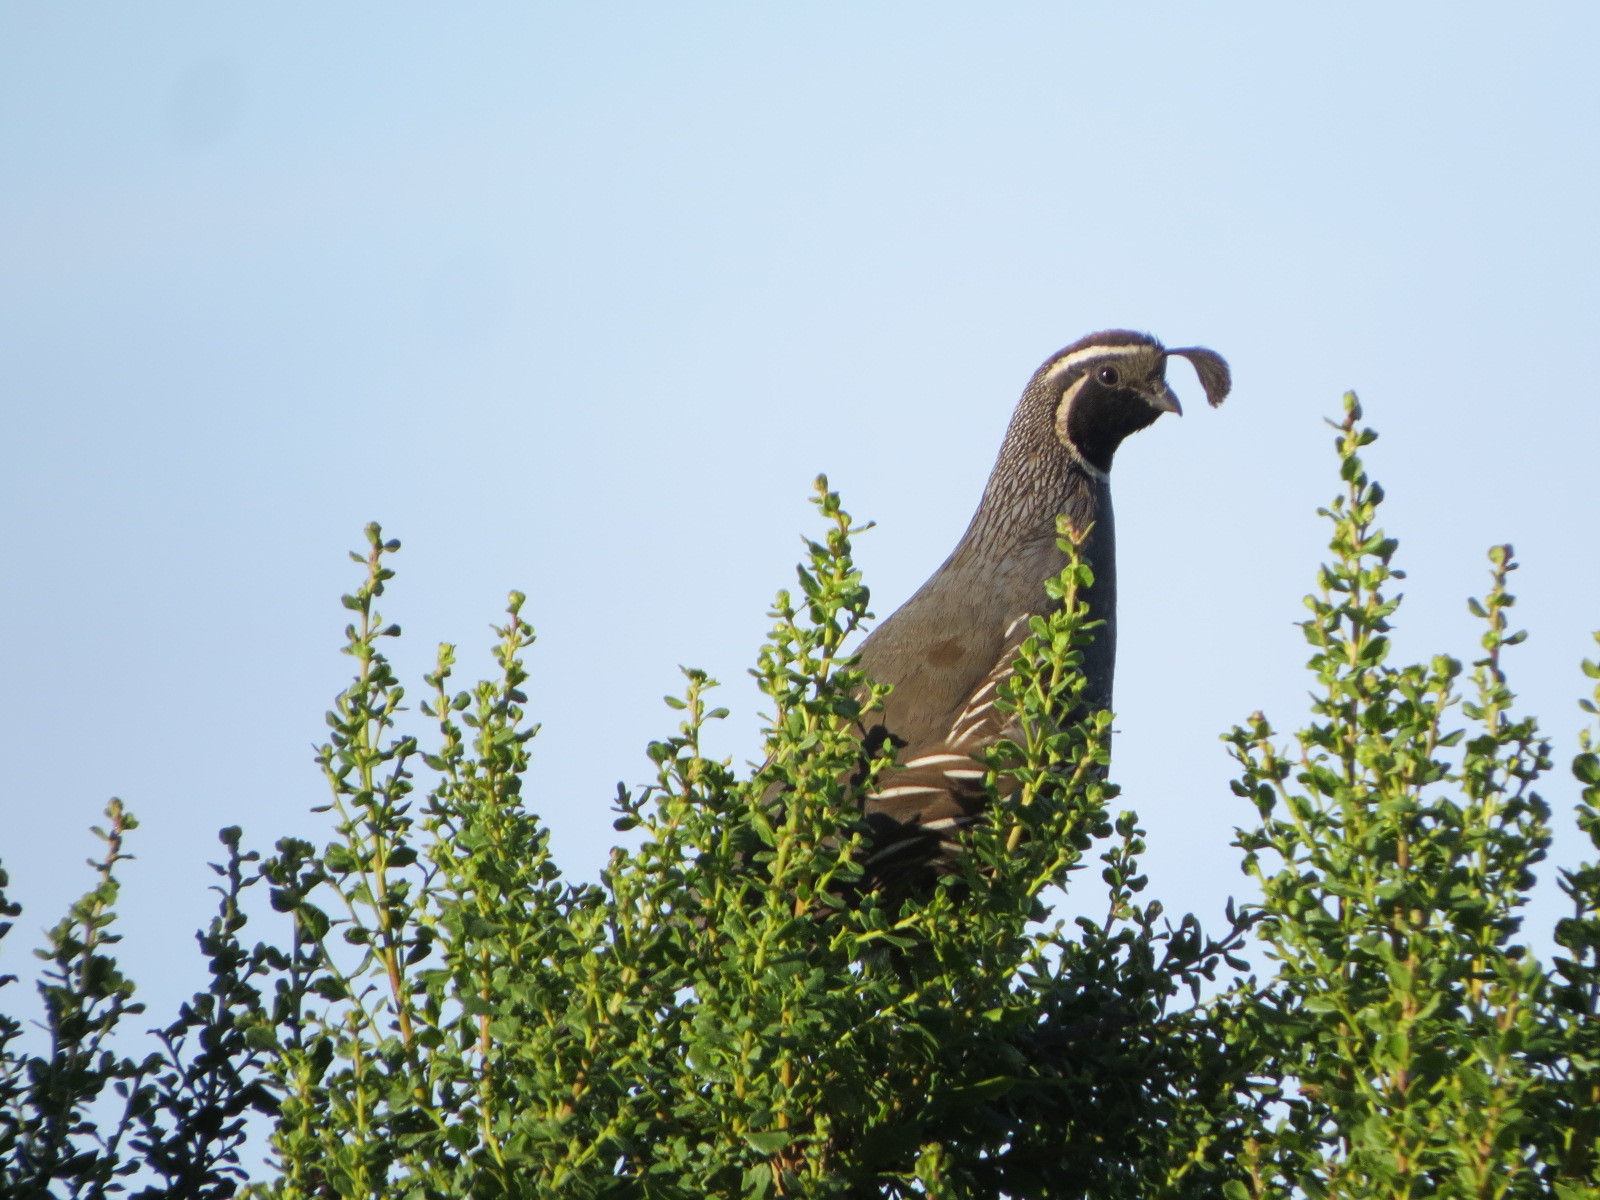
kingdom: Animalia
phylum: Chordata
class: Aves
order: Galliformes
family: Odontophoridae
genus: Callipepla
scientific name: Callipepla californica
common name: California quail
